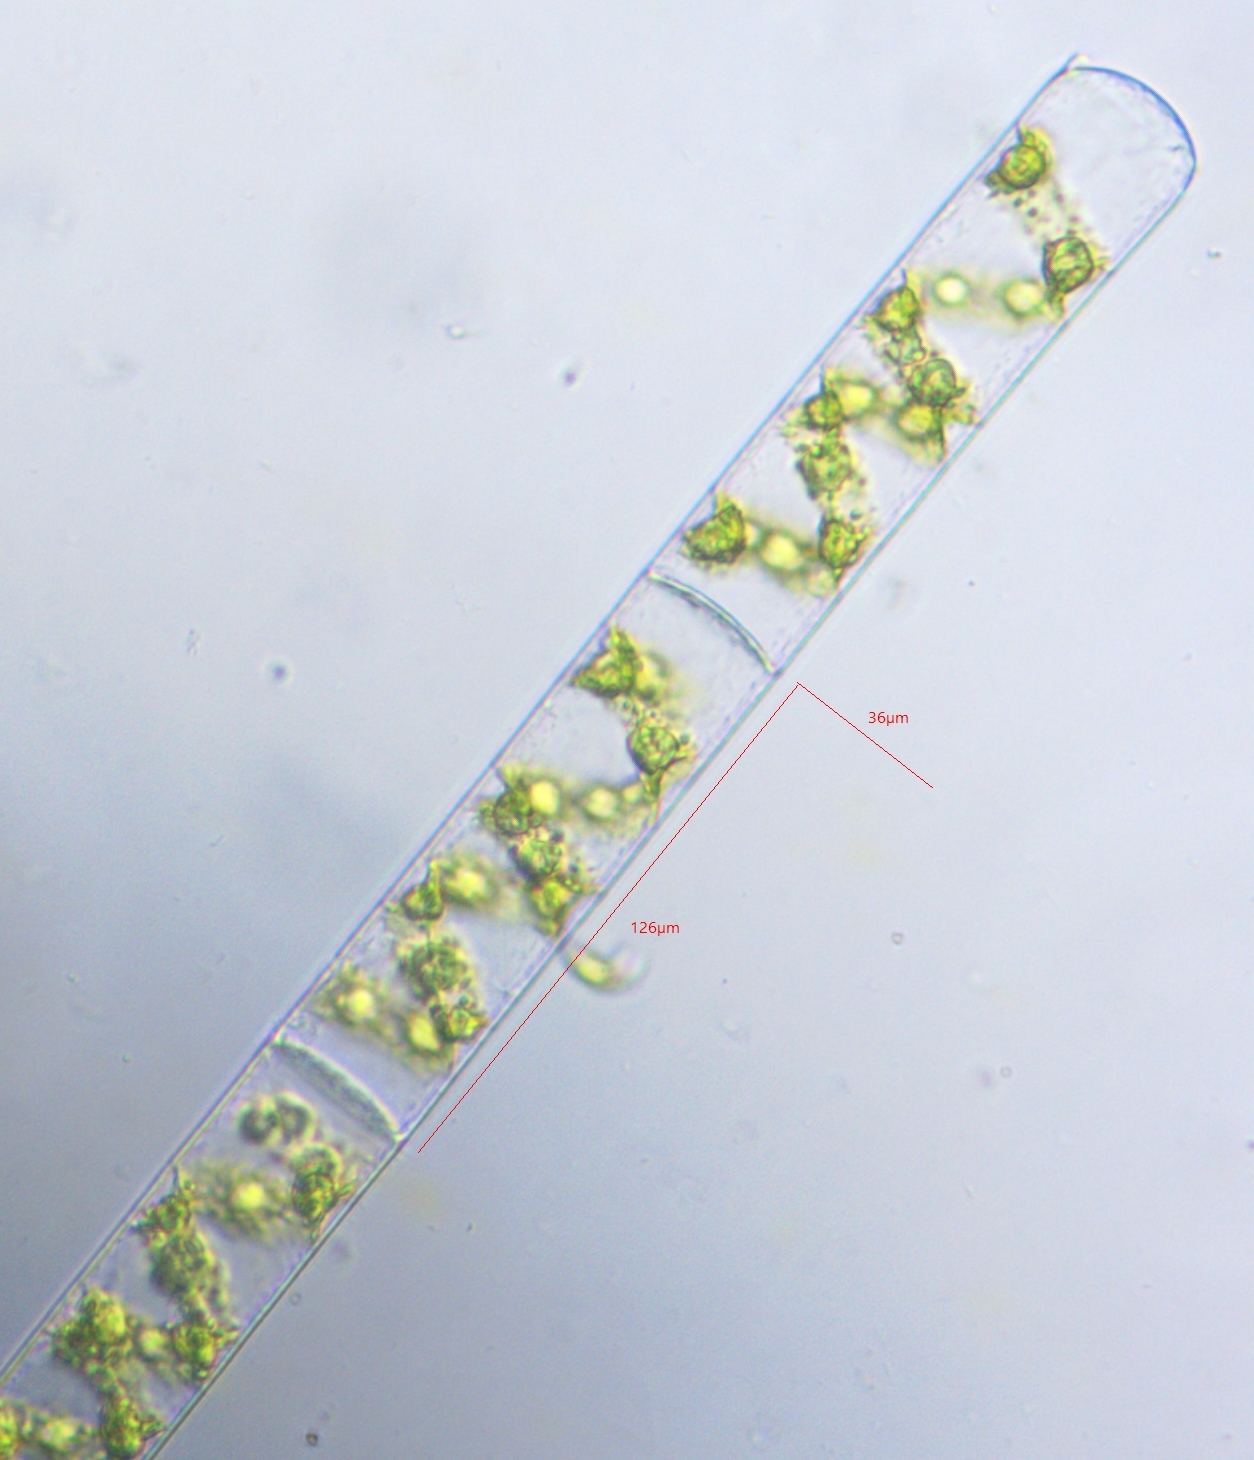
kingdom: Plantae
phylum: Charophyta
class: Zygnematophyceae
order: Zygnematales
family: Zygnemataceae
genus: Spirogyra
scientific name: Spirogyra
